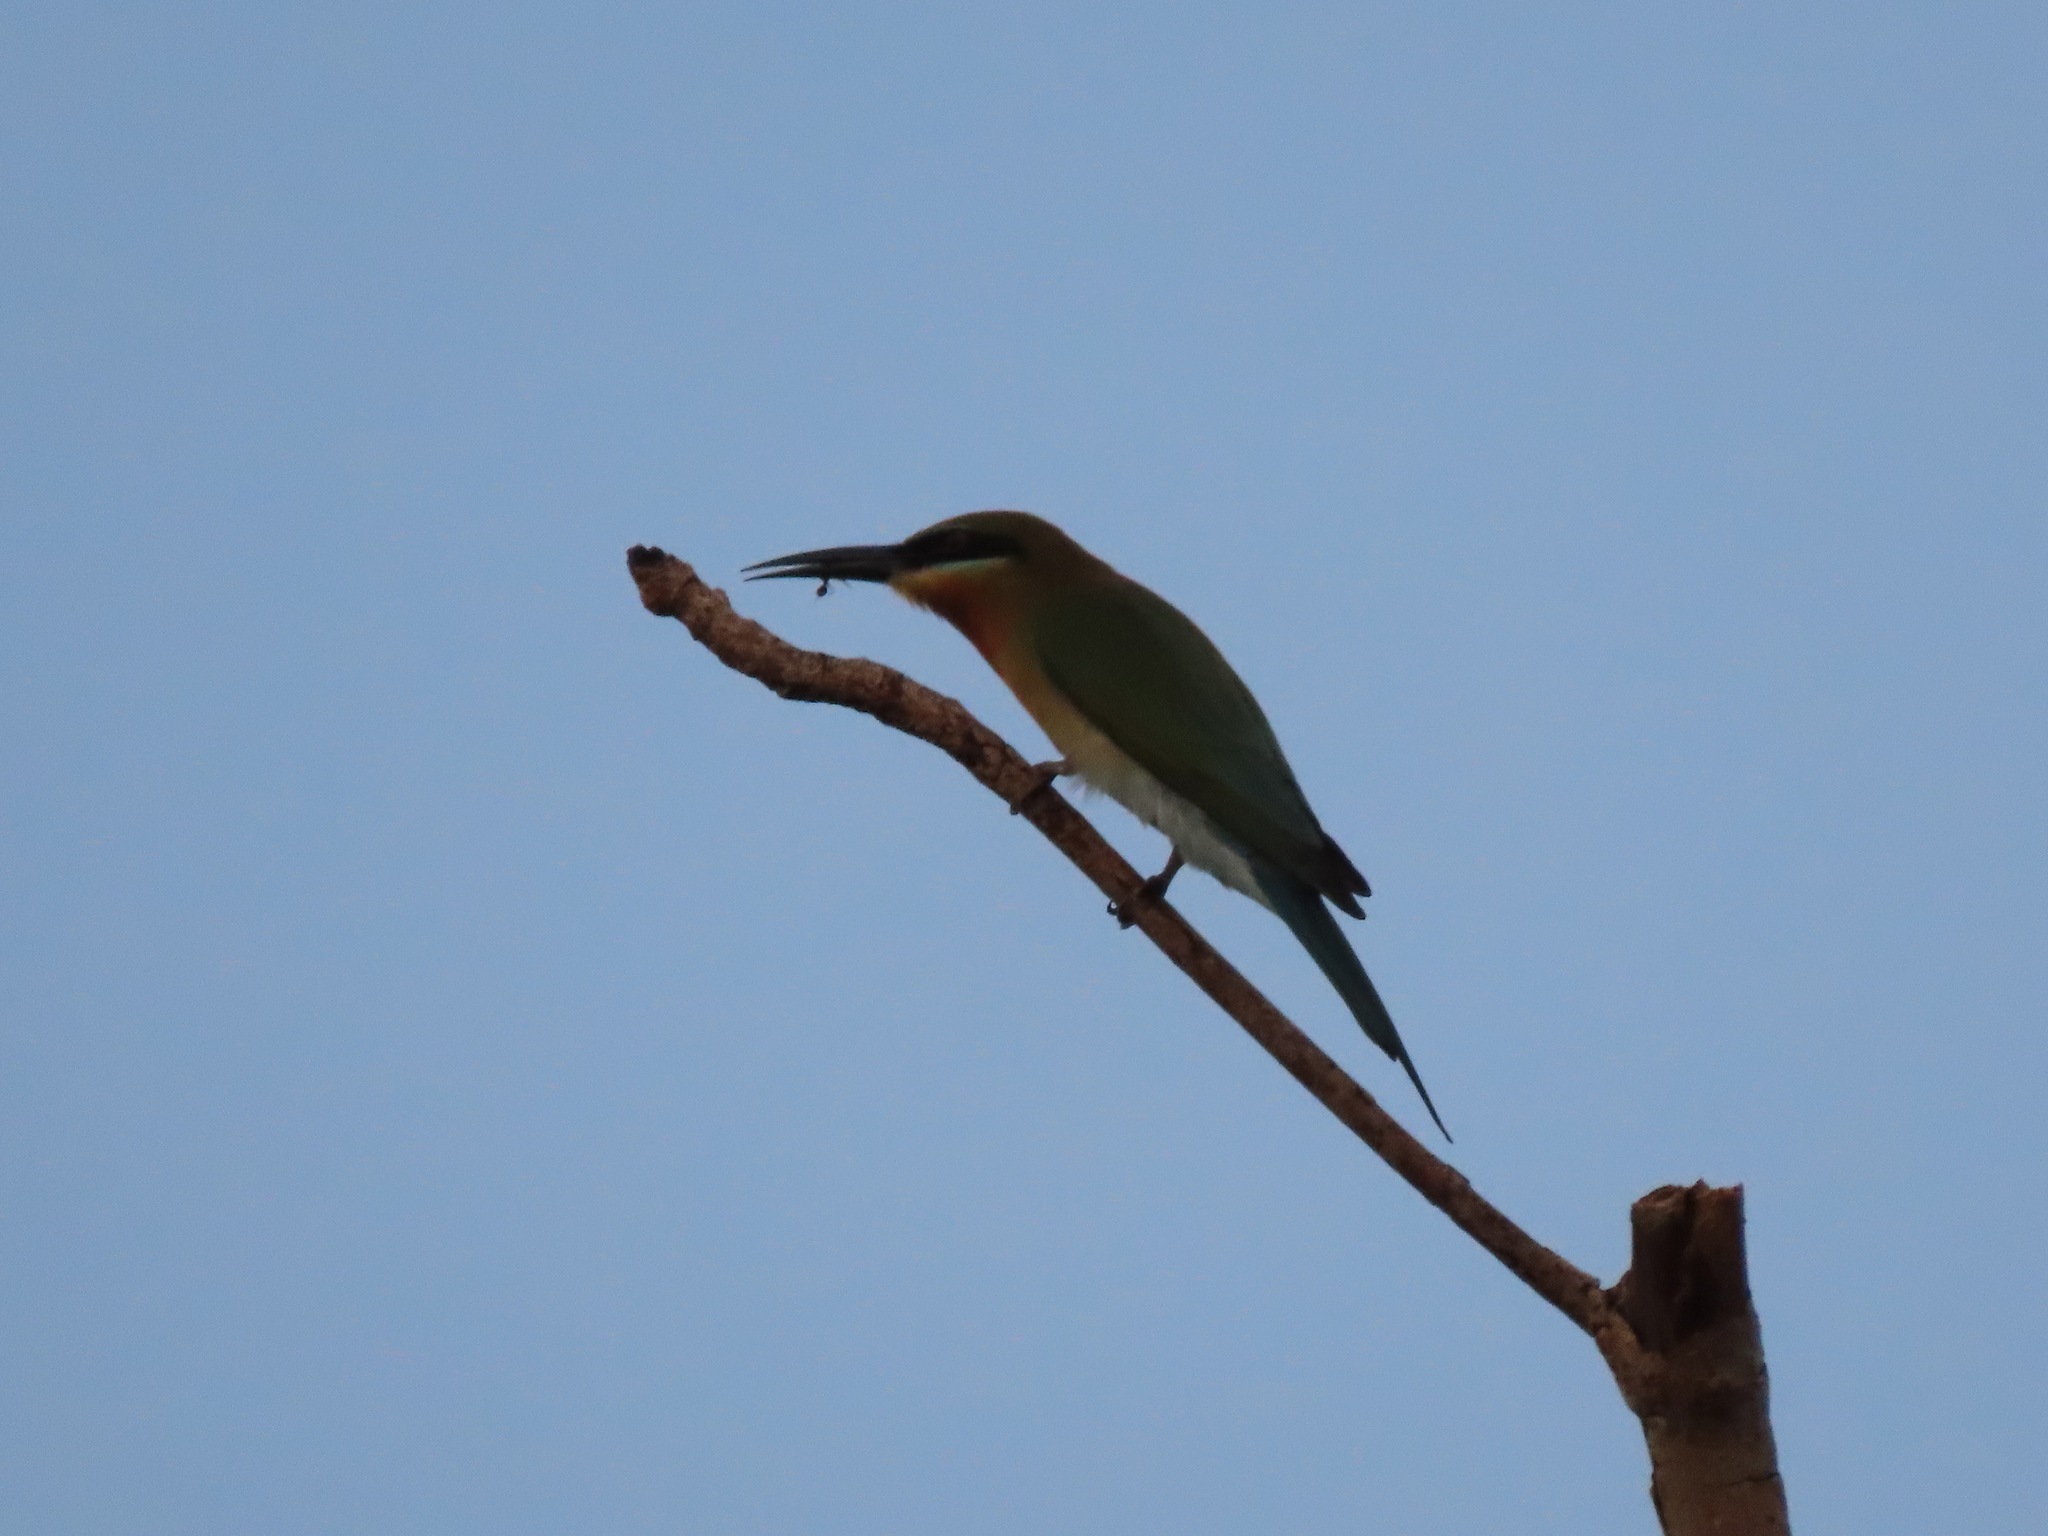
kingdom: Animalia
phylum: Chordata
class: Aves
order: Coraciiformes
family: Meropidae
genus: Merops
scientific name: Merops philippinus
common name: Blue-tailed bee-eater
